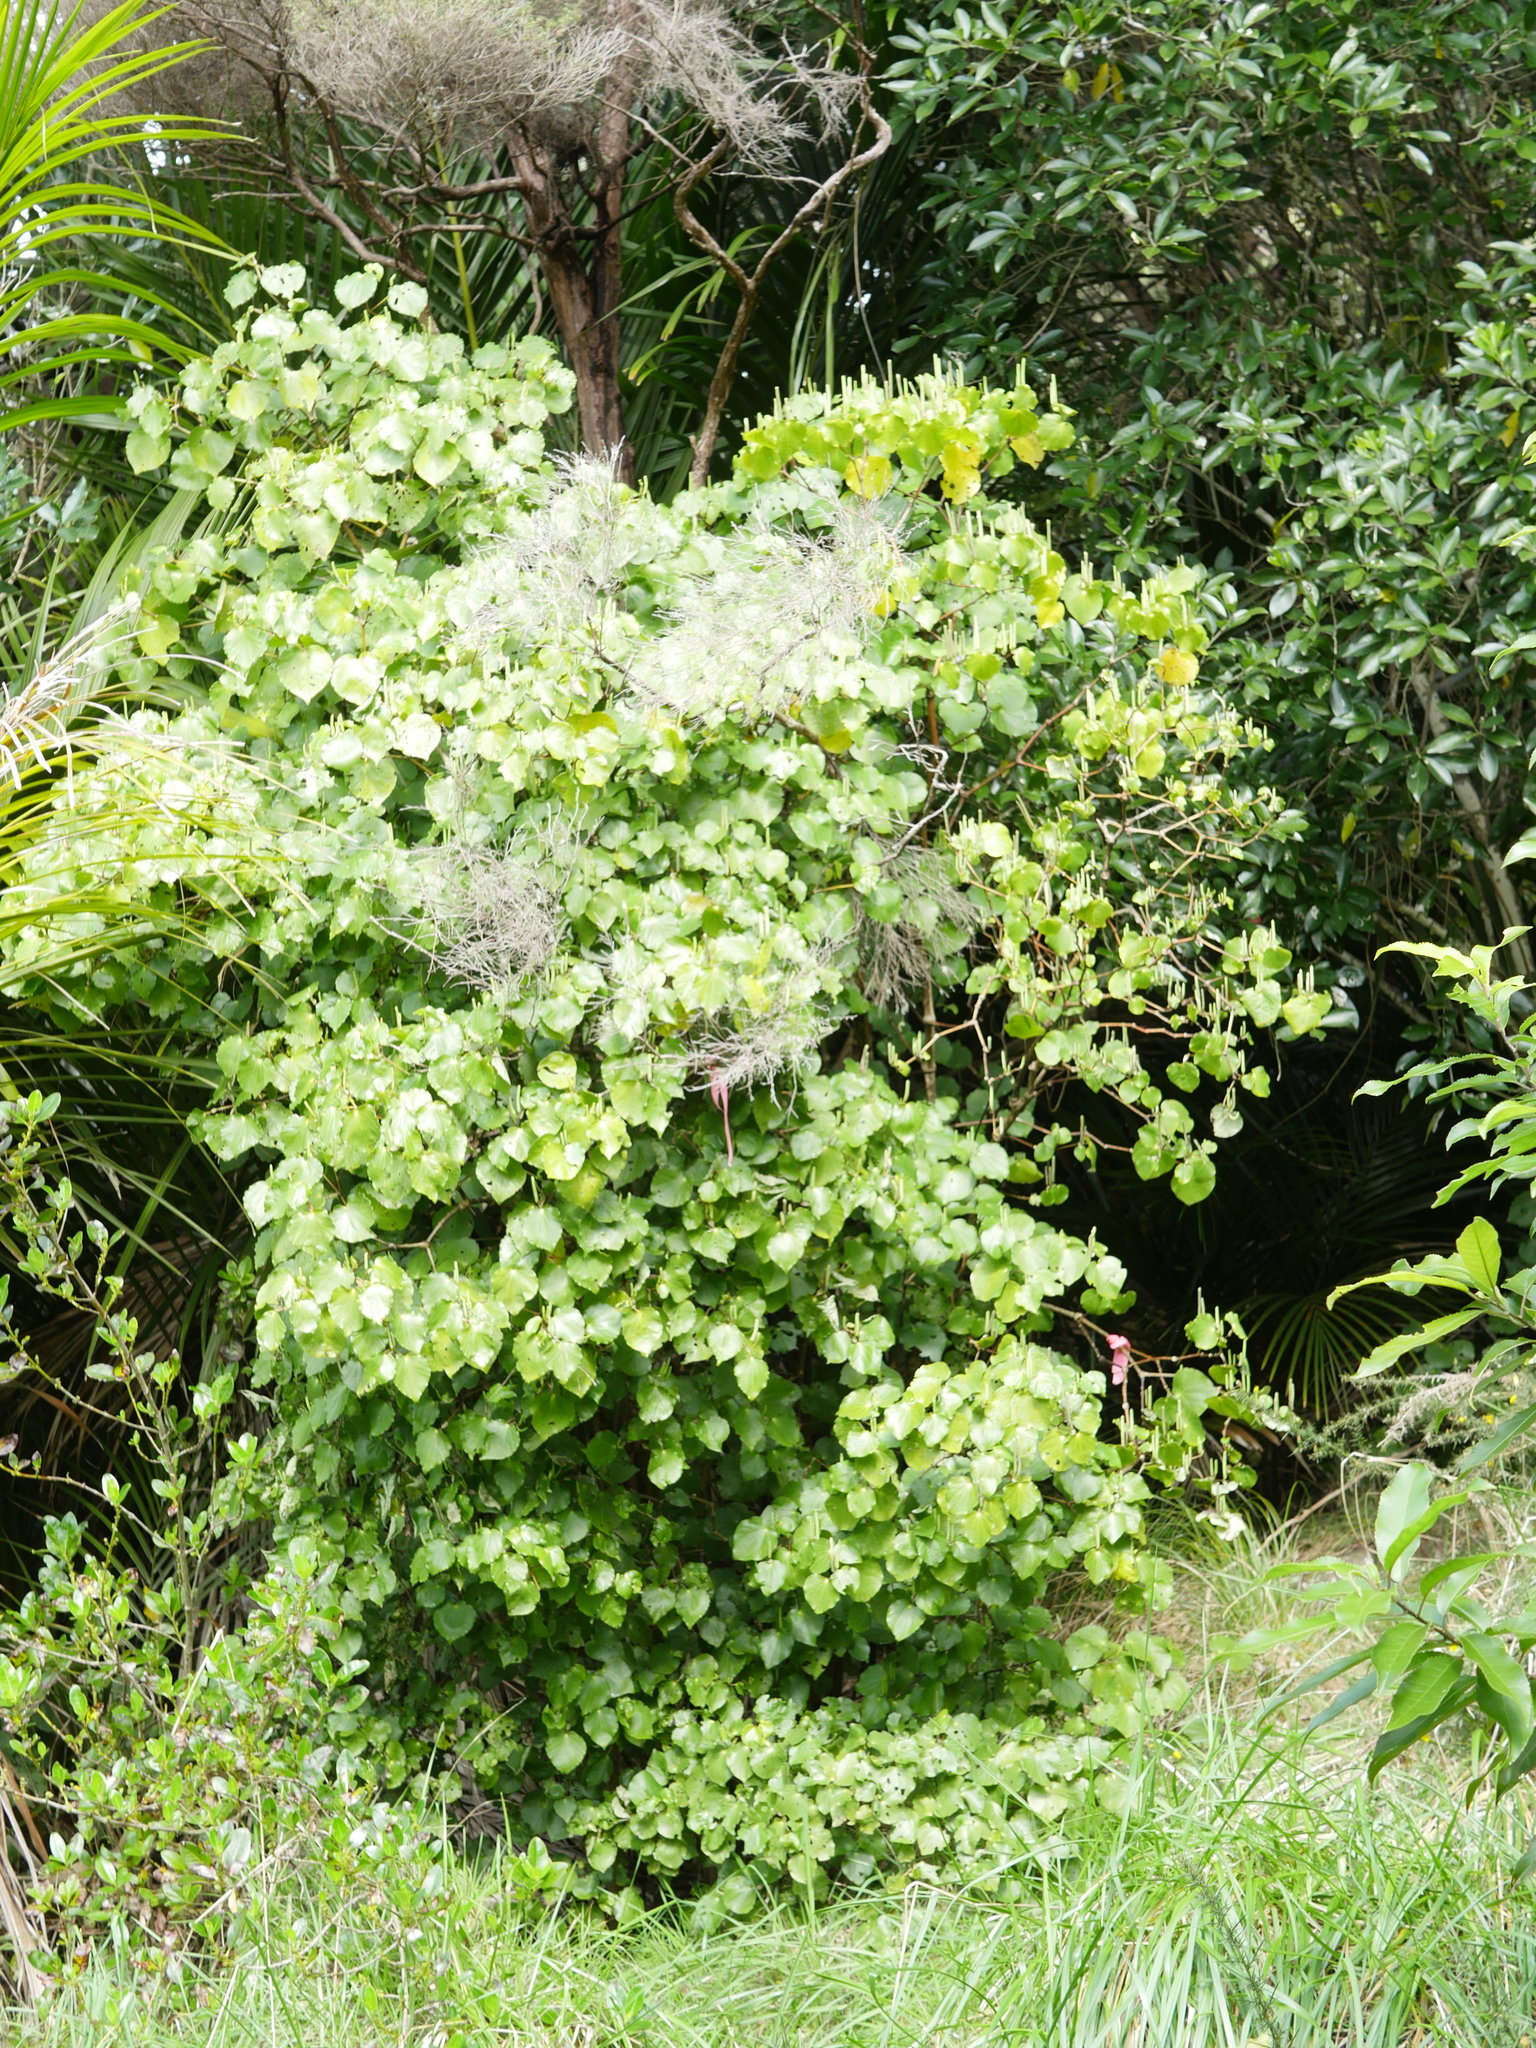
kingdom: Plantae
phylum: Tracheophyta
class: Magnoliopsida
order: Piperales
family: Piperaceae
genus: Macropiper
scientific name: Macropiper excelsum
